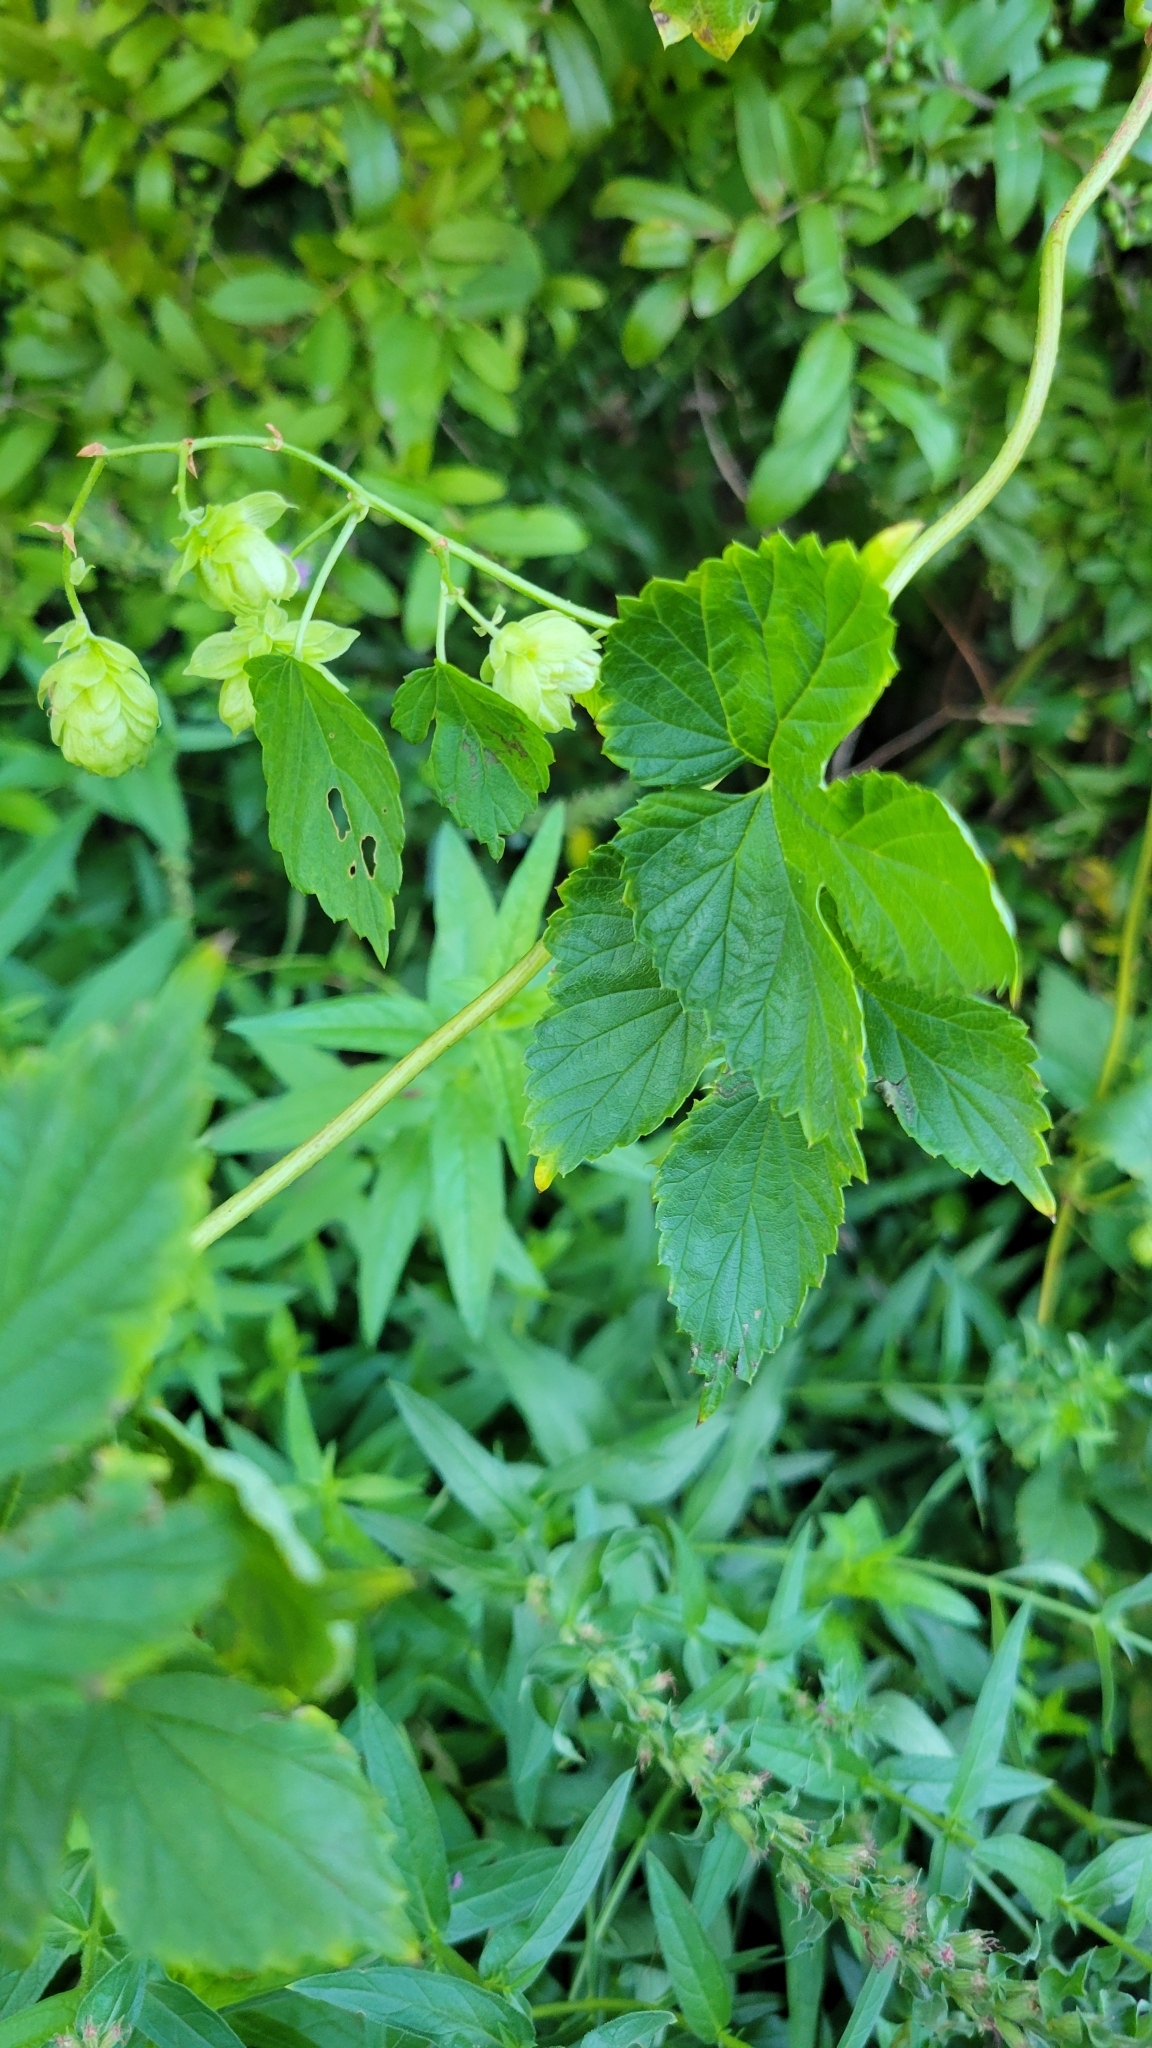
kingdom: Plantae
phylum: Tracheophyta
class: Magnoliopsida
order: Rosales
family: Cannabaceae
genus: Humulus
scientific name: Humulus lupulus
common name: Hop
